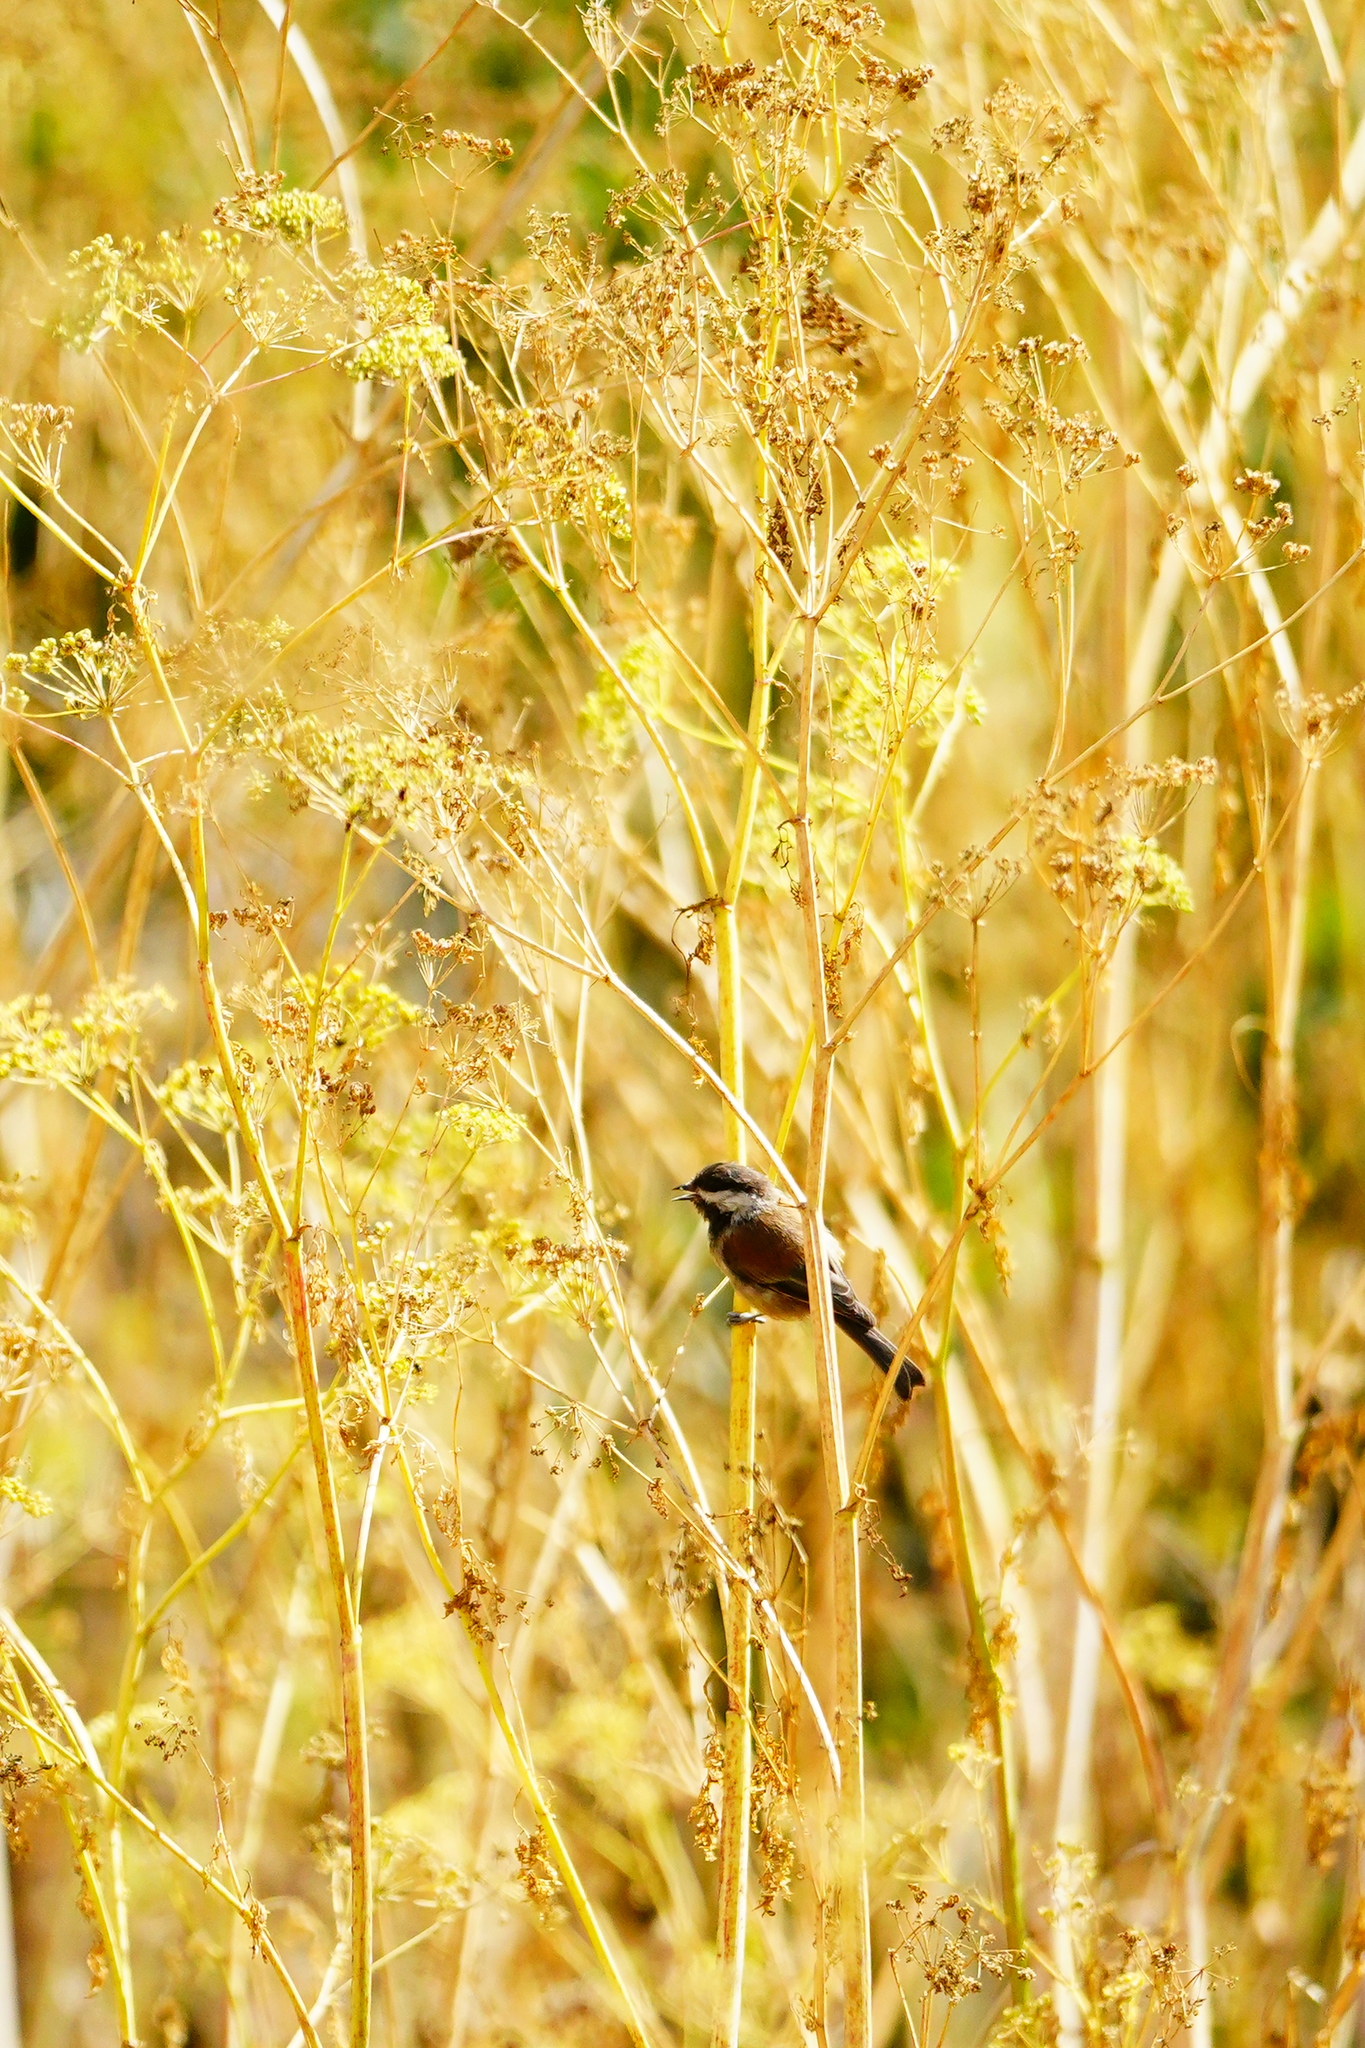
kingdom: Animalia
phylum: Chordata
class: Aves
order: Passeriformes
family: Paridae
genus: Poecile
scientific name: Poecile rufescens
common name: Chestnut-backed chickadee
